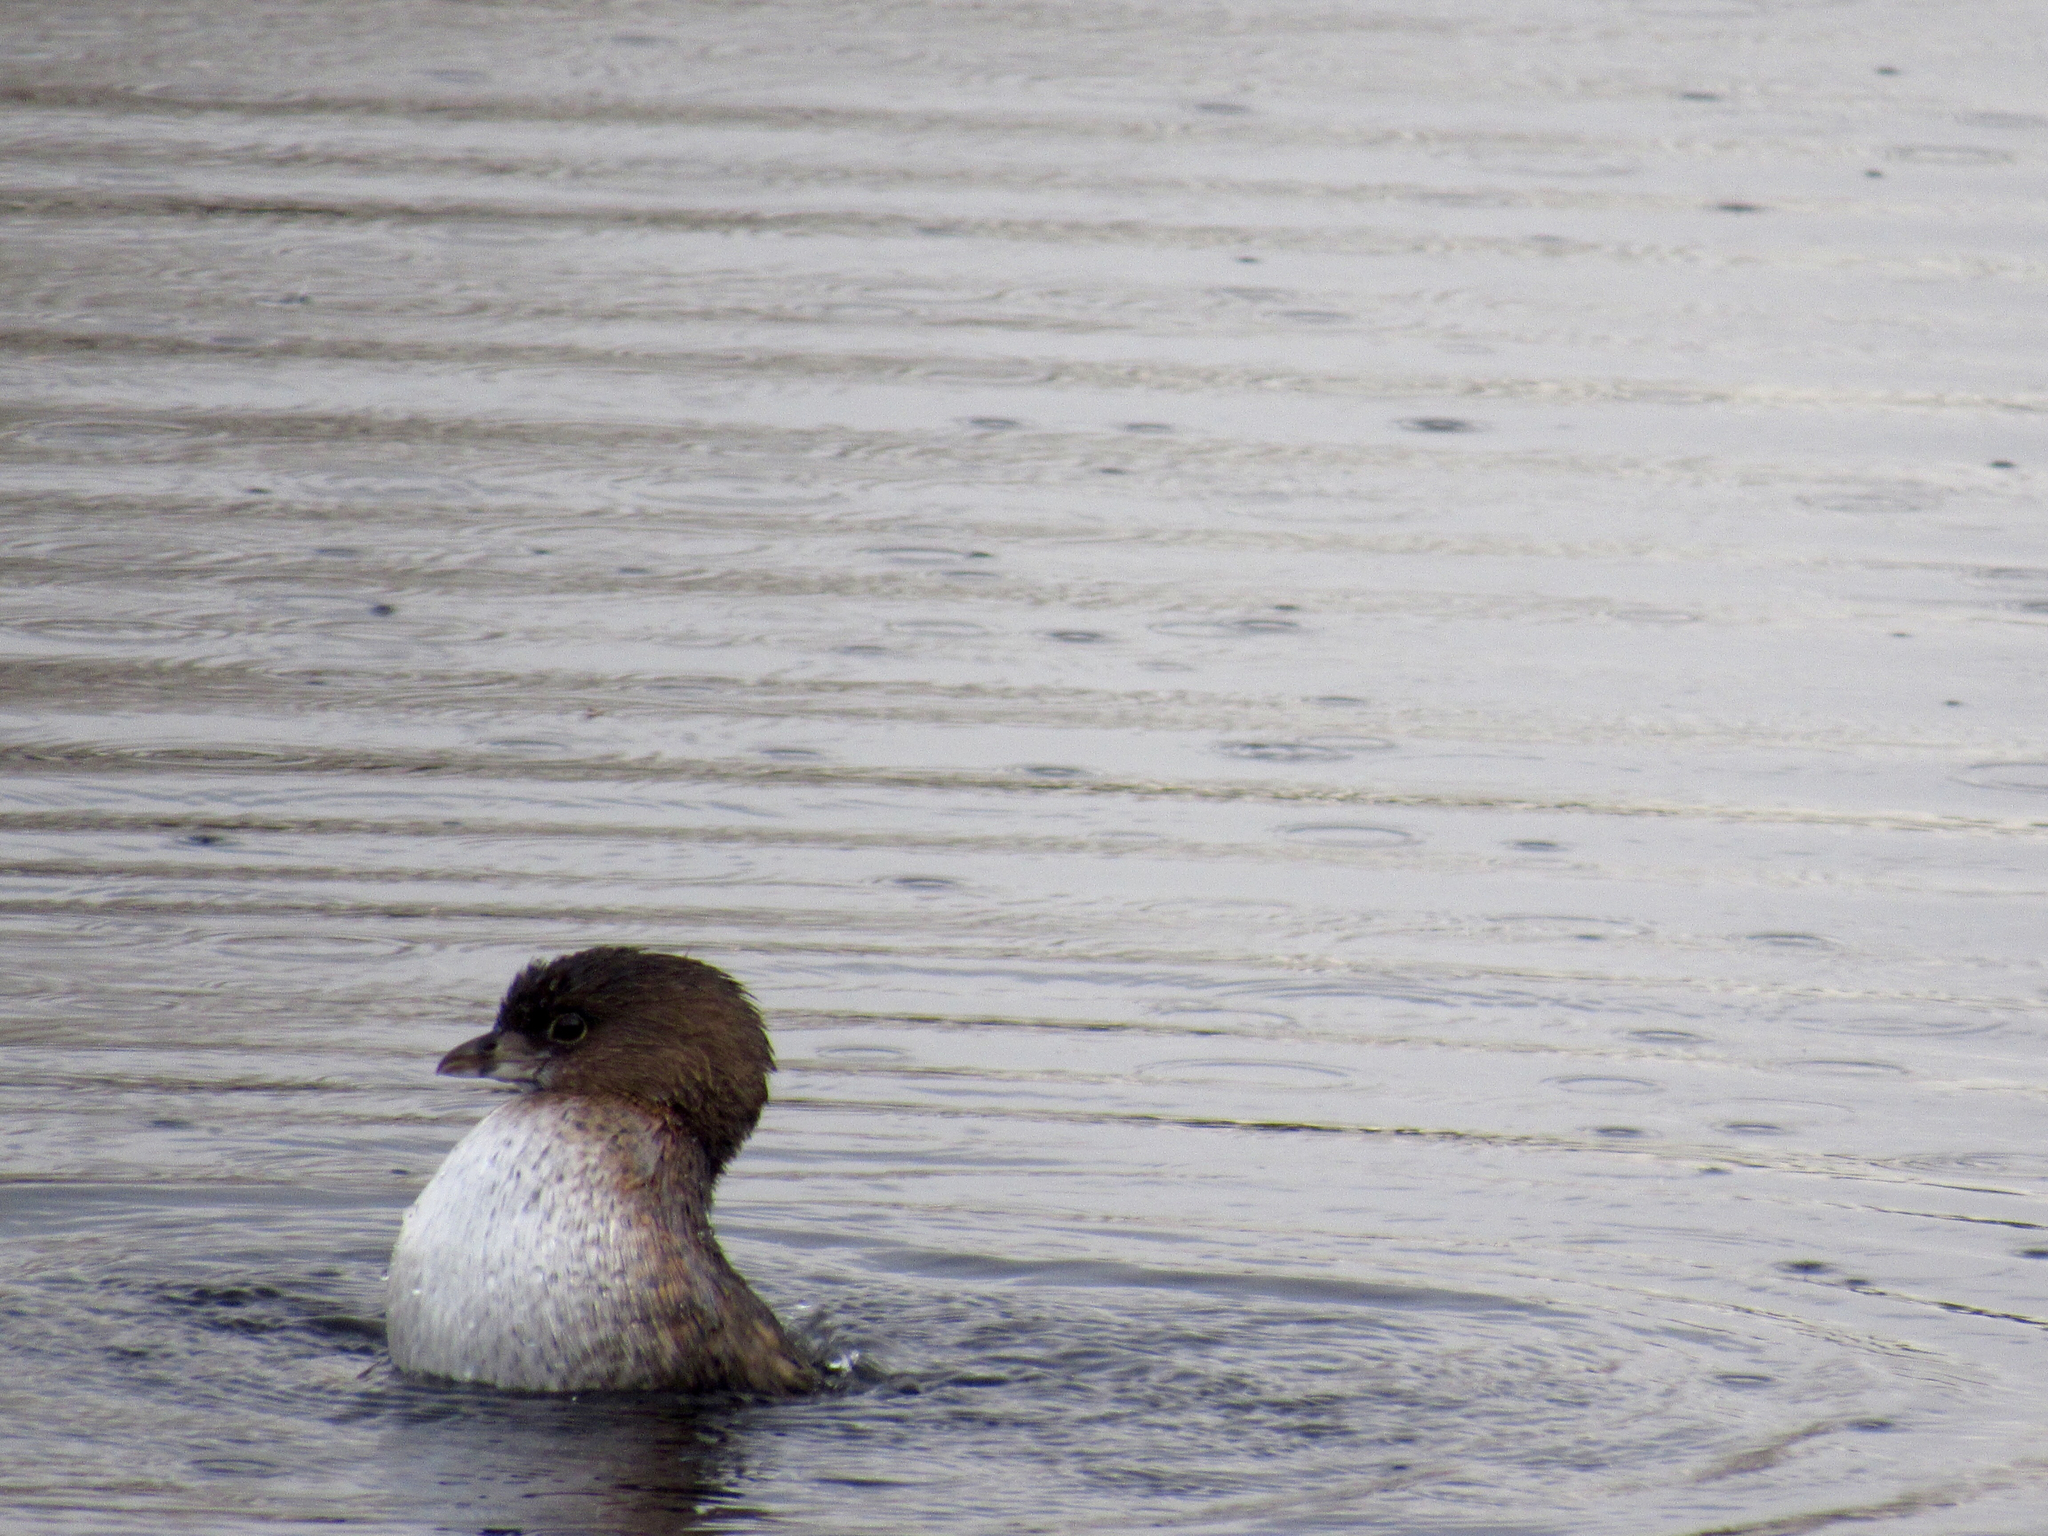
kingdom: Animalia
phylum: Chordata
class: Aves
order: Podicipediformes
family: Podicipedidae
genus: Podilymbus
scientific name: Podilymbus podiceps
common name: Pied-billed grebe
